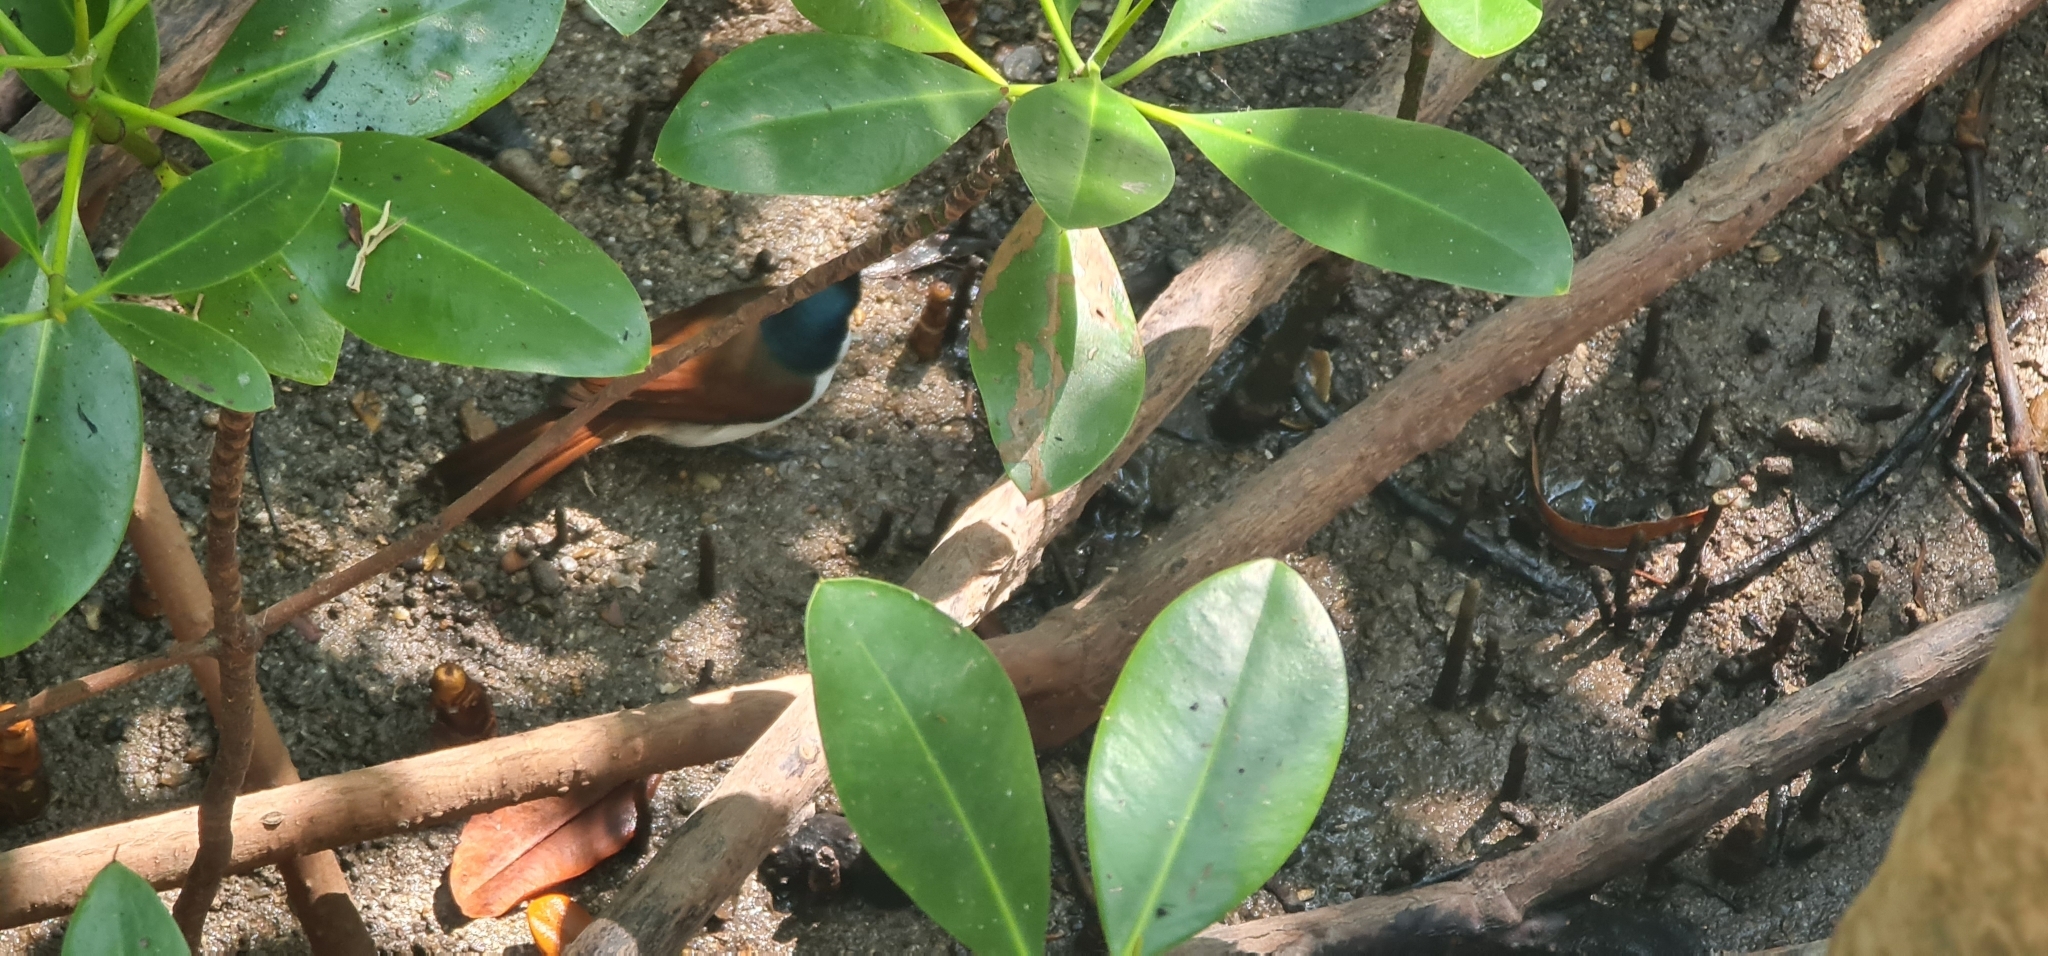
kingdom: Animalia
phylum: Chordata
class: Aves
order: Passeriformes
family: Monarchidae
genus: Myiagra
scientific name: Myiagra alecto
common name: Shining flycatcher
